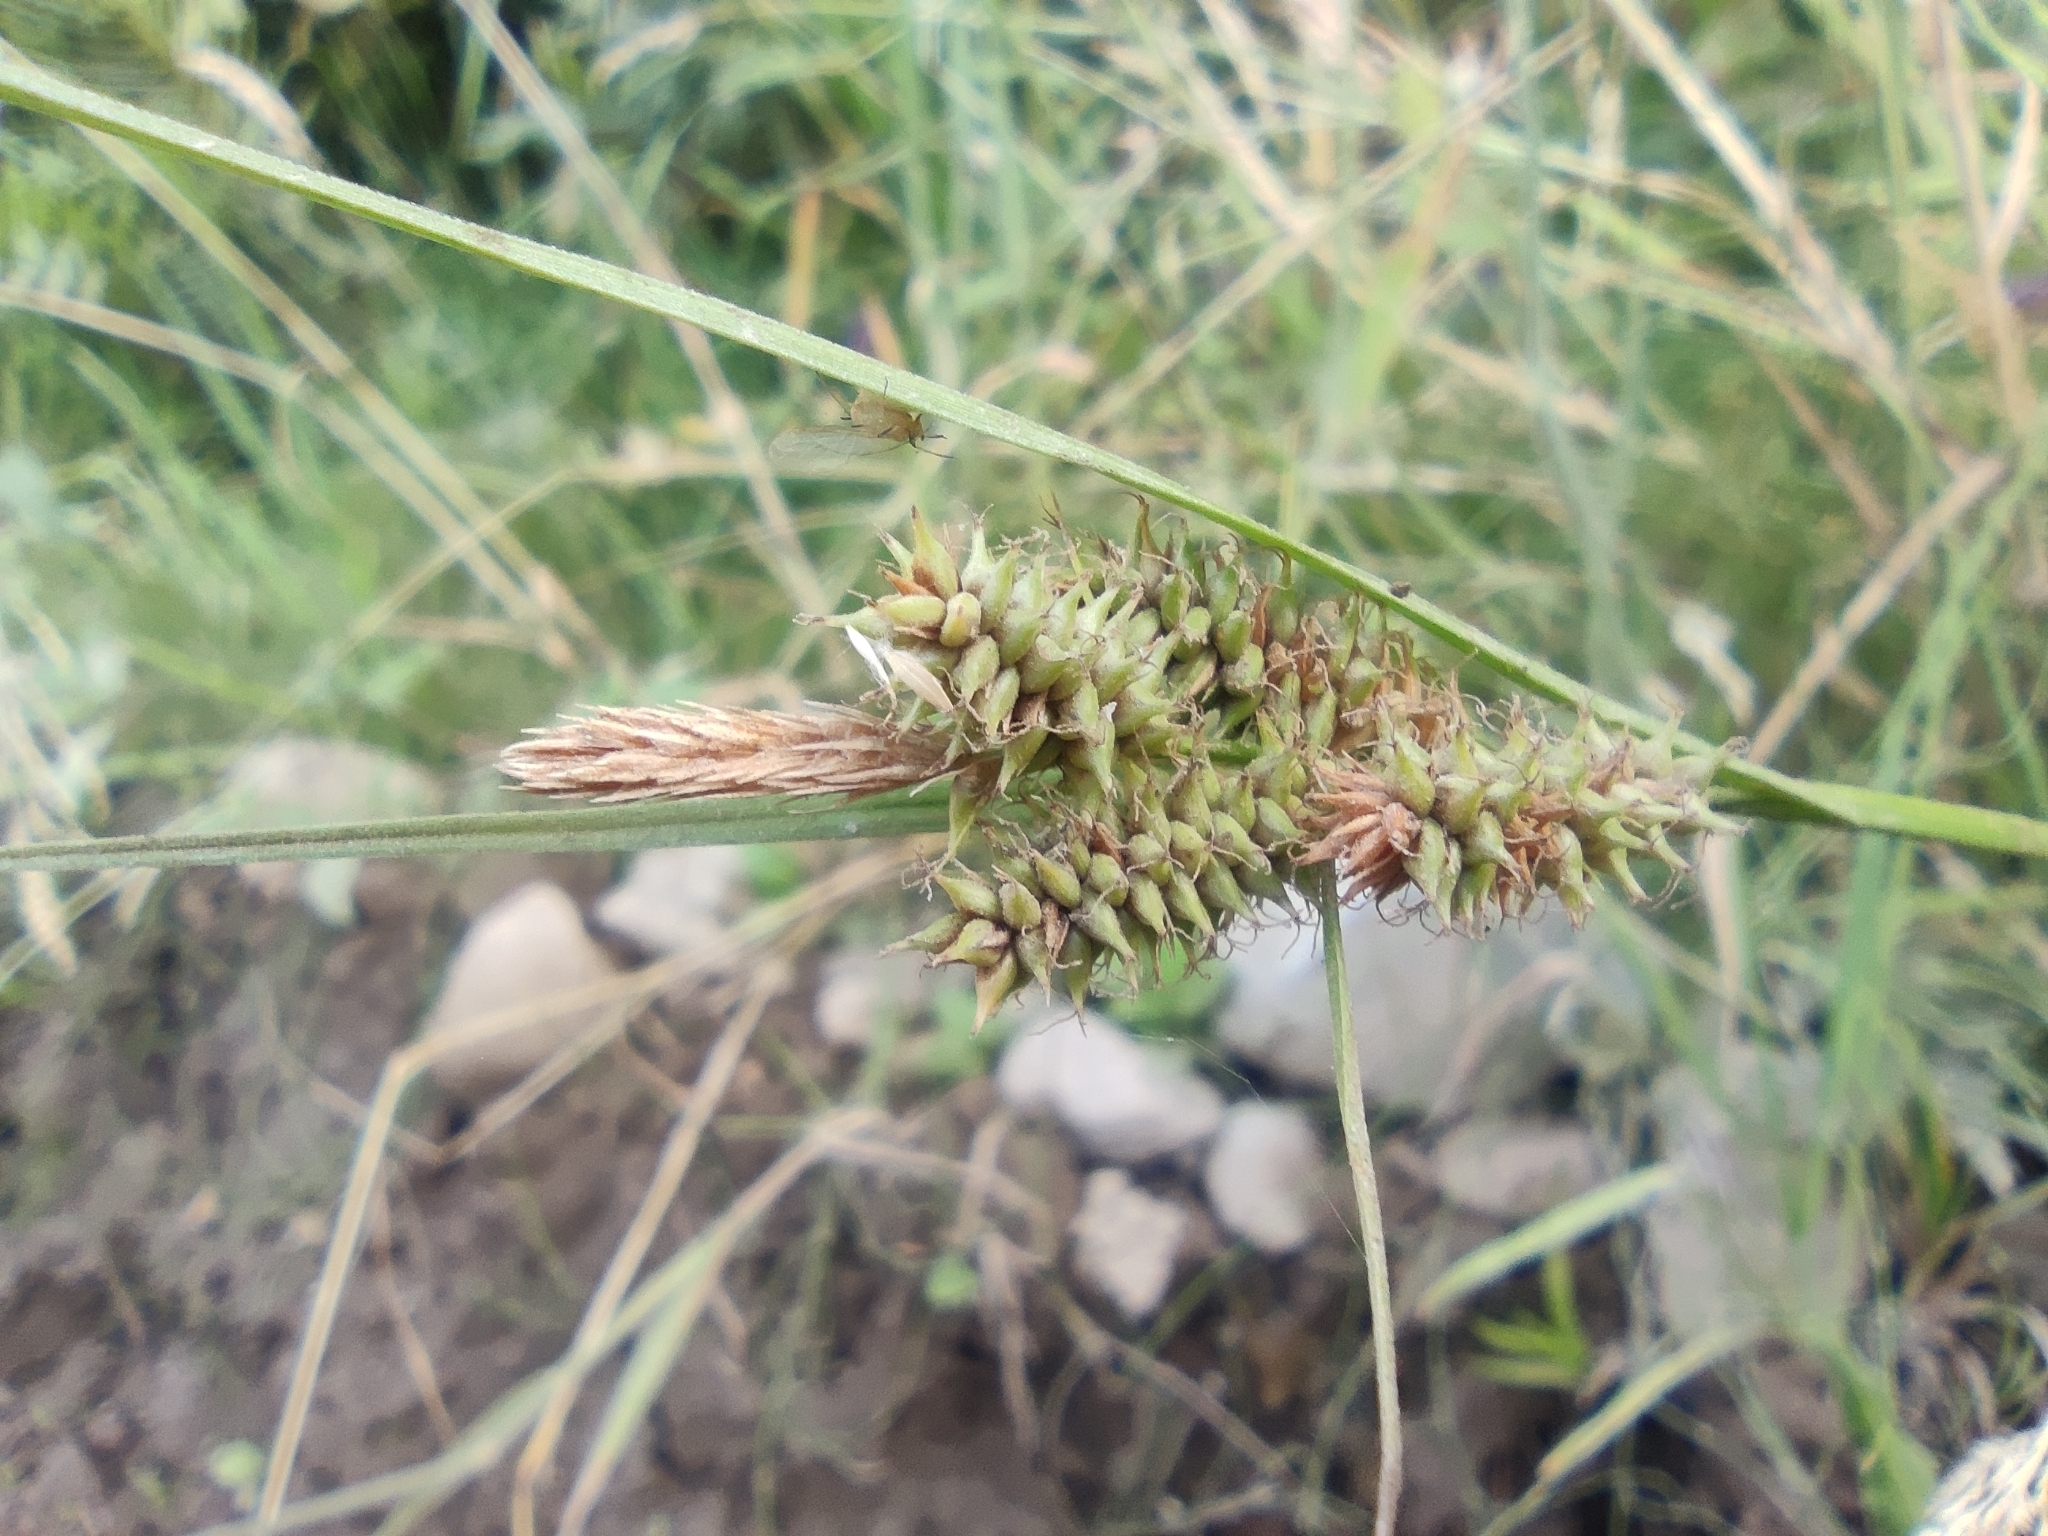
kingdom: Plantae
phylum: Tracheophyta
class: Liliopsida
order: Poales
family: Cyperaceae
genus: Carex
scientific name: Carex fuscula
